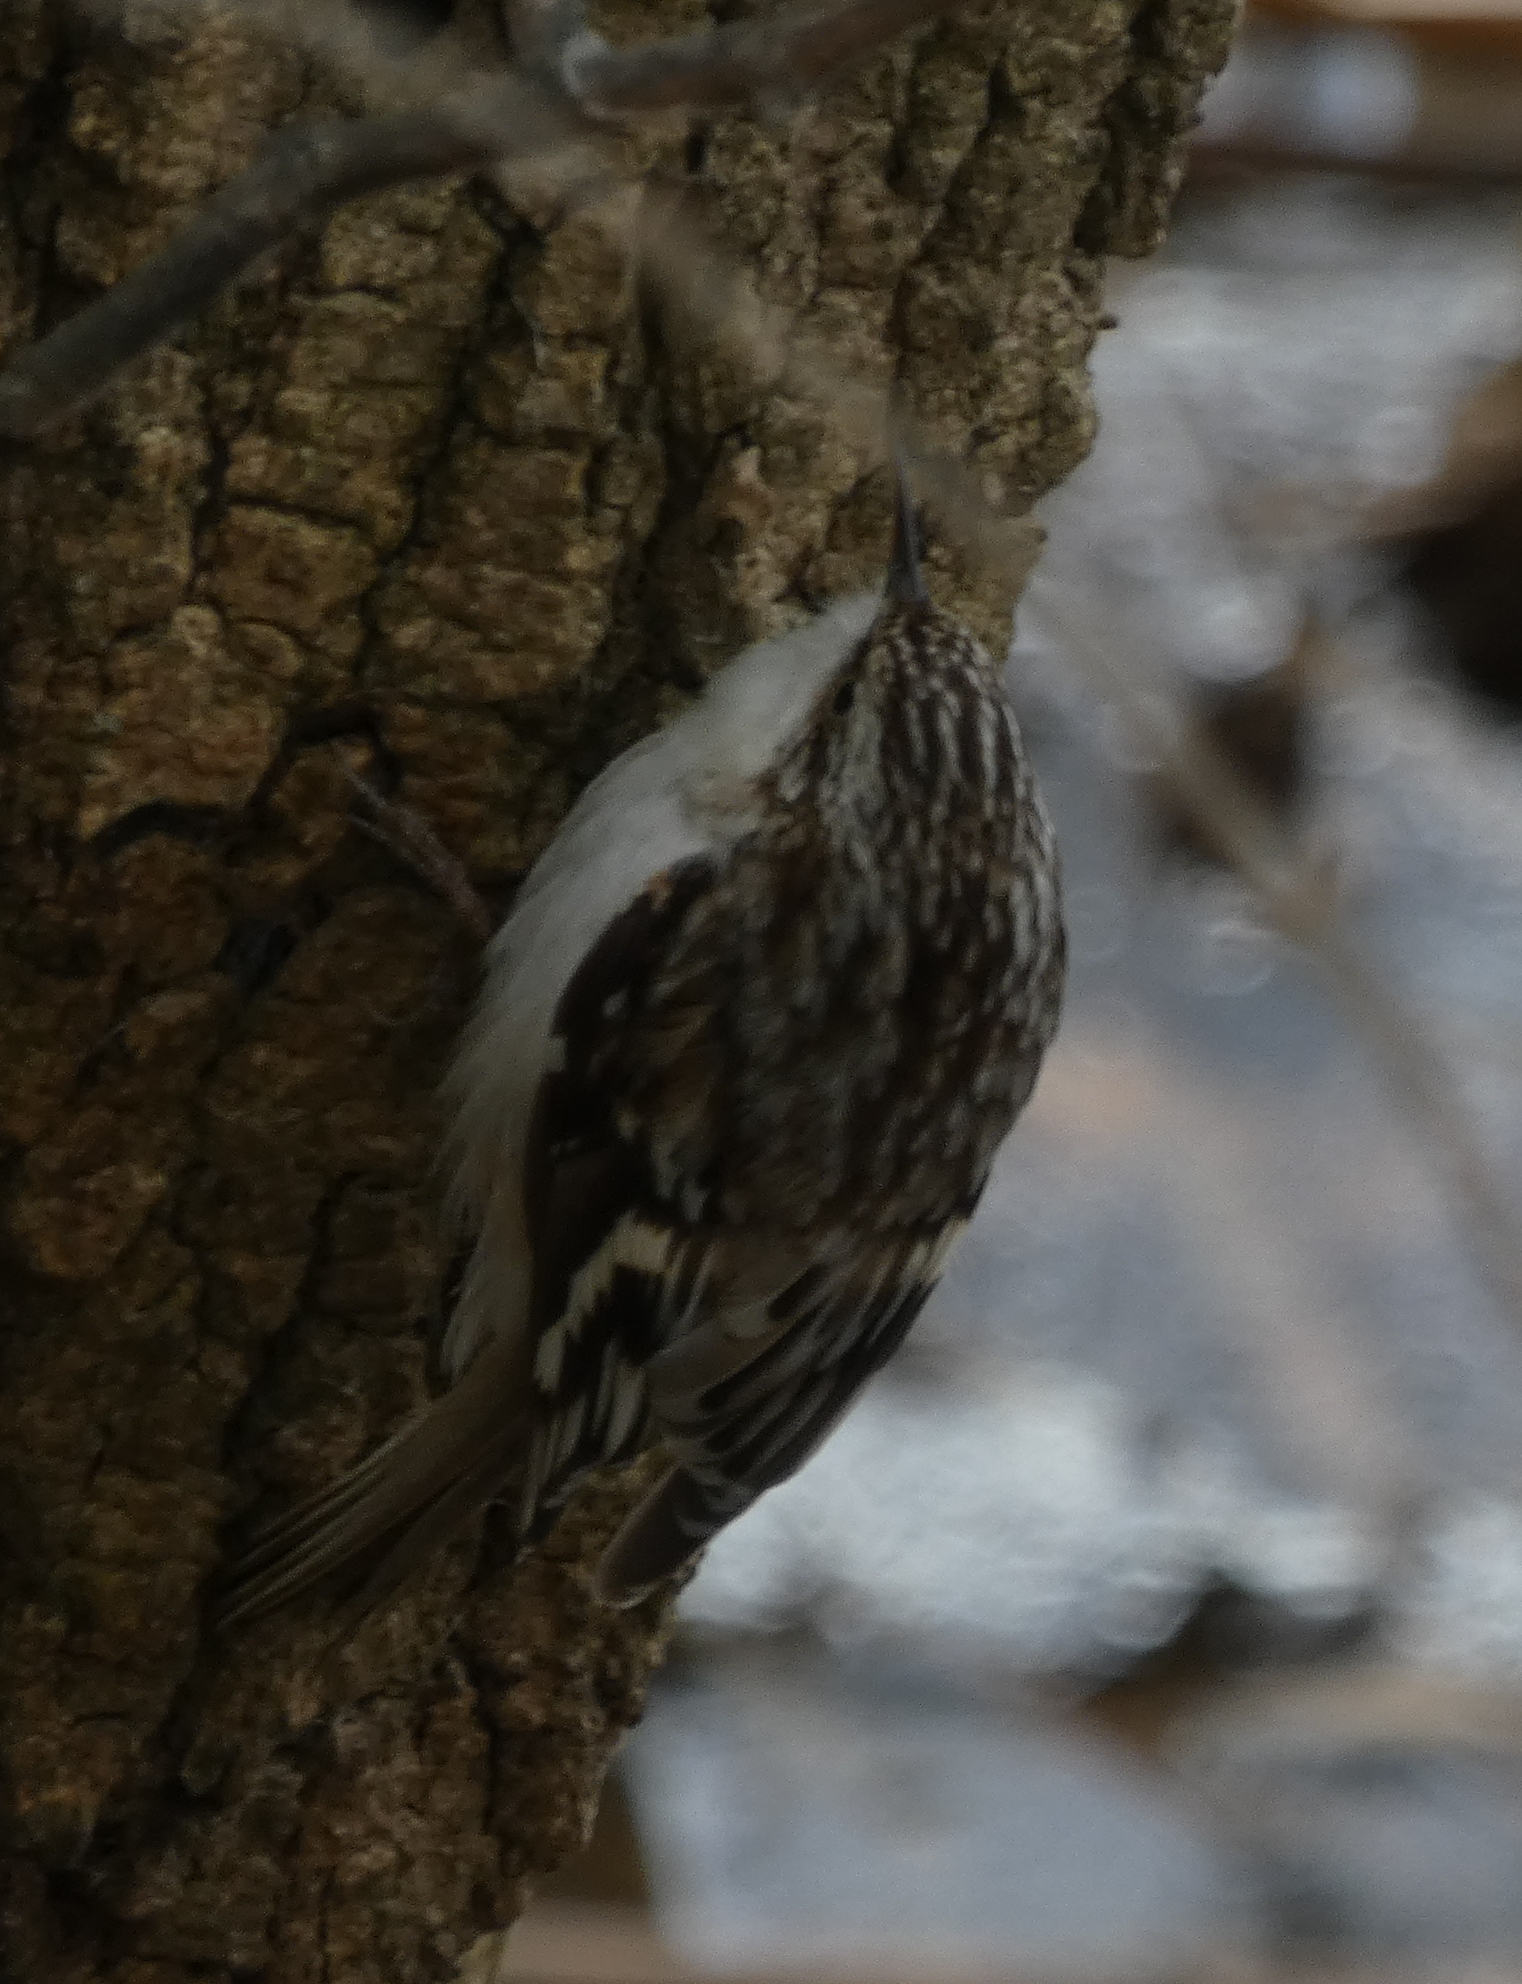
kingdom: Animalia
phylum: Chordata
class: Aves
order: Passeriformes
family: Certhiidae
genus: Certhia
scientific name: Certhia americana
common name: Brown creeper
